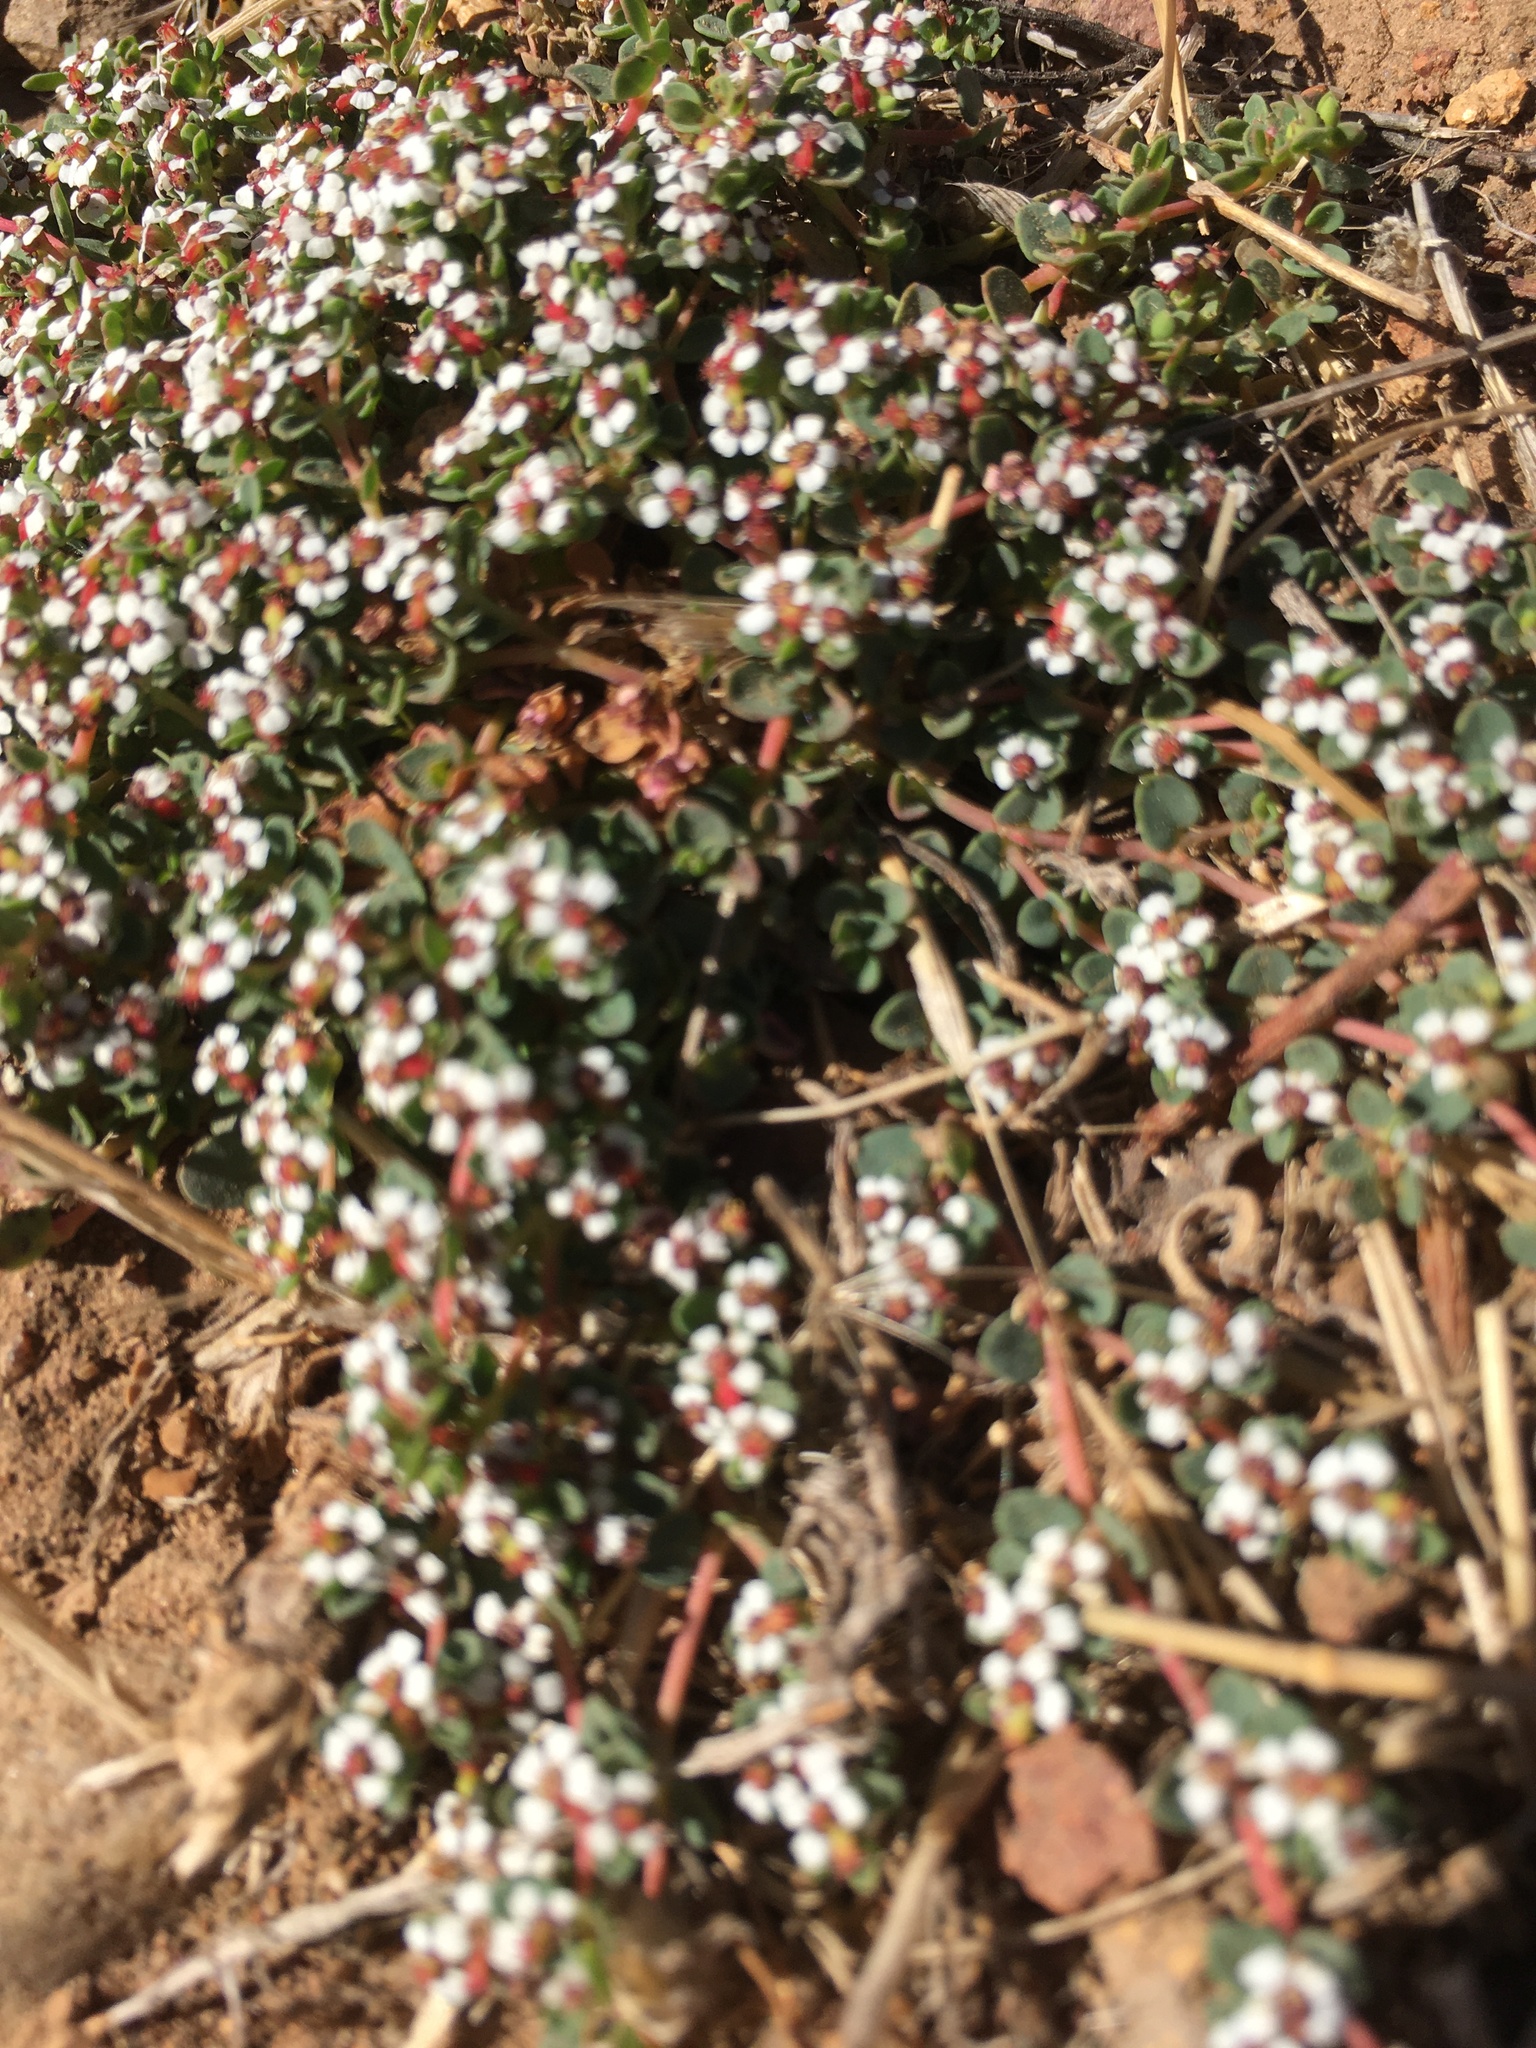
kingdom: Plantae
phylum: Tracheophyta
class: Magnoliopsida
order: Malpighiales
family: Euphorbiaceae
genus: Euphorbia
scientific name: Euphorbia polycarpa
